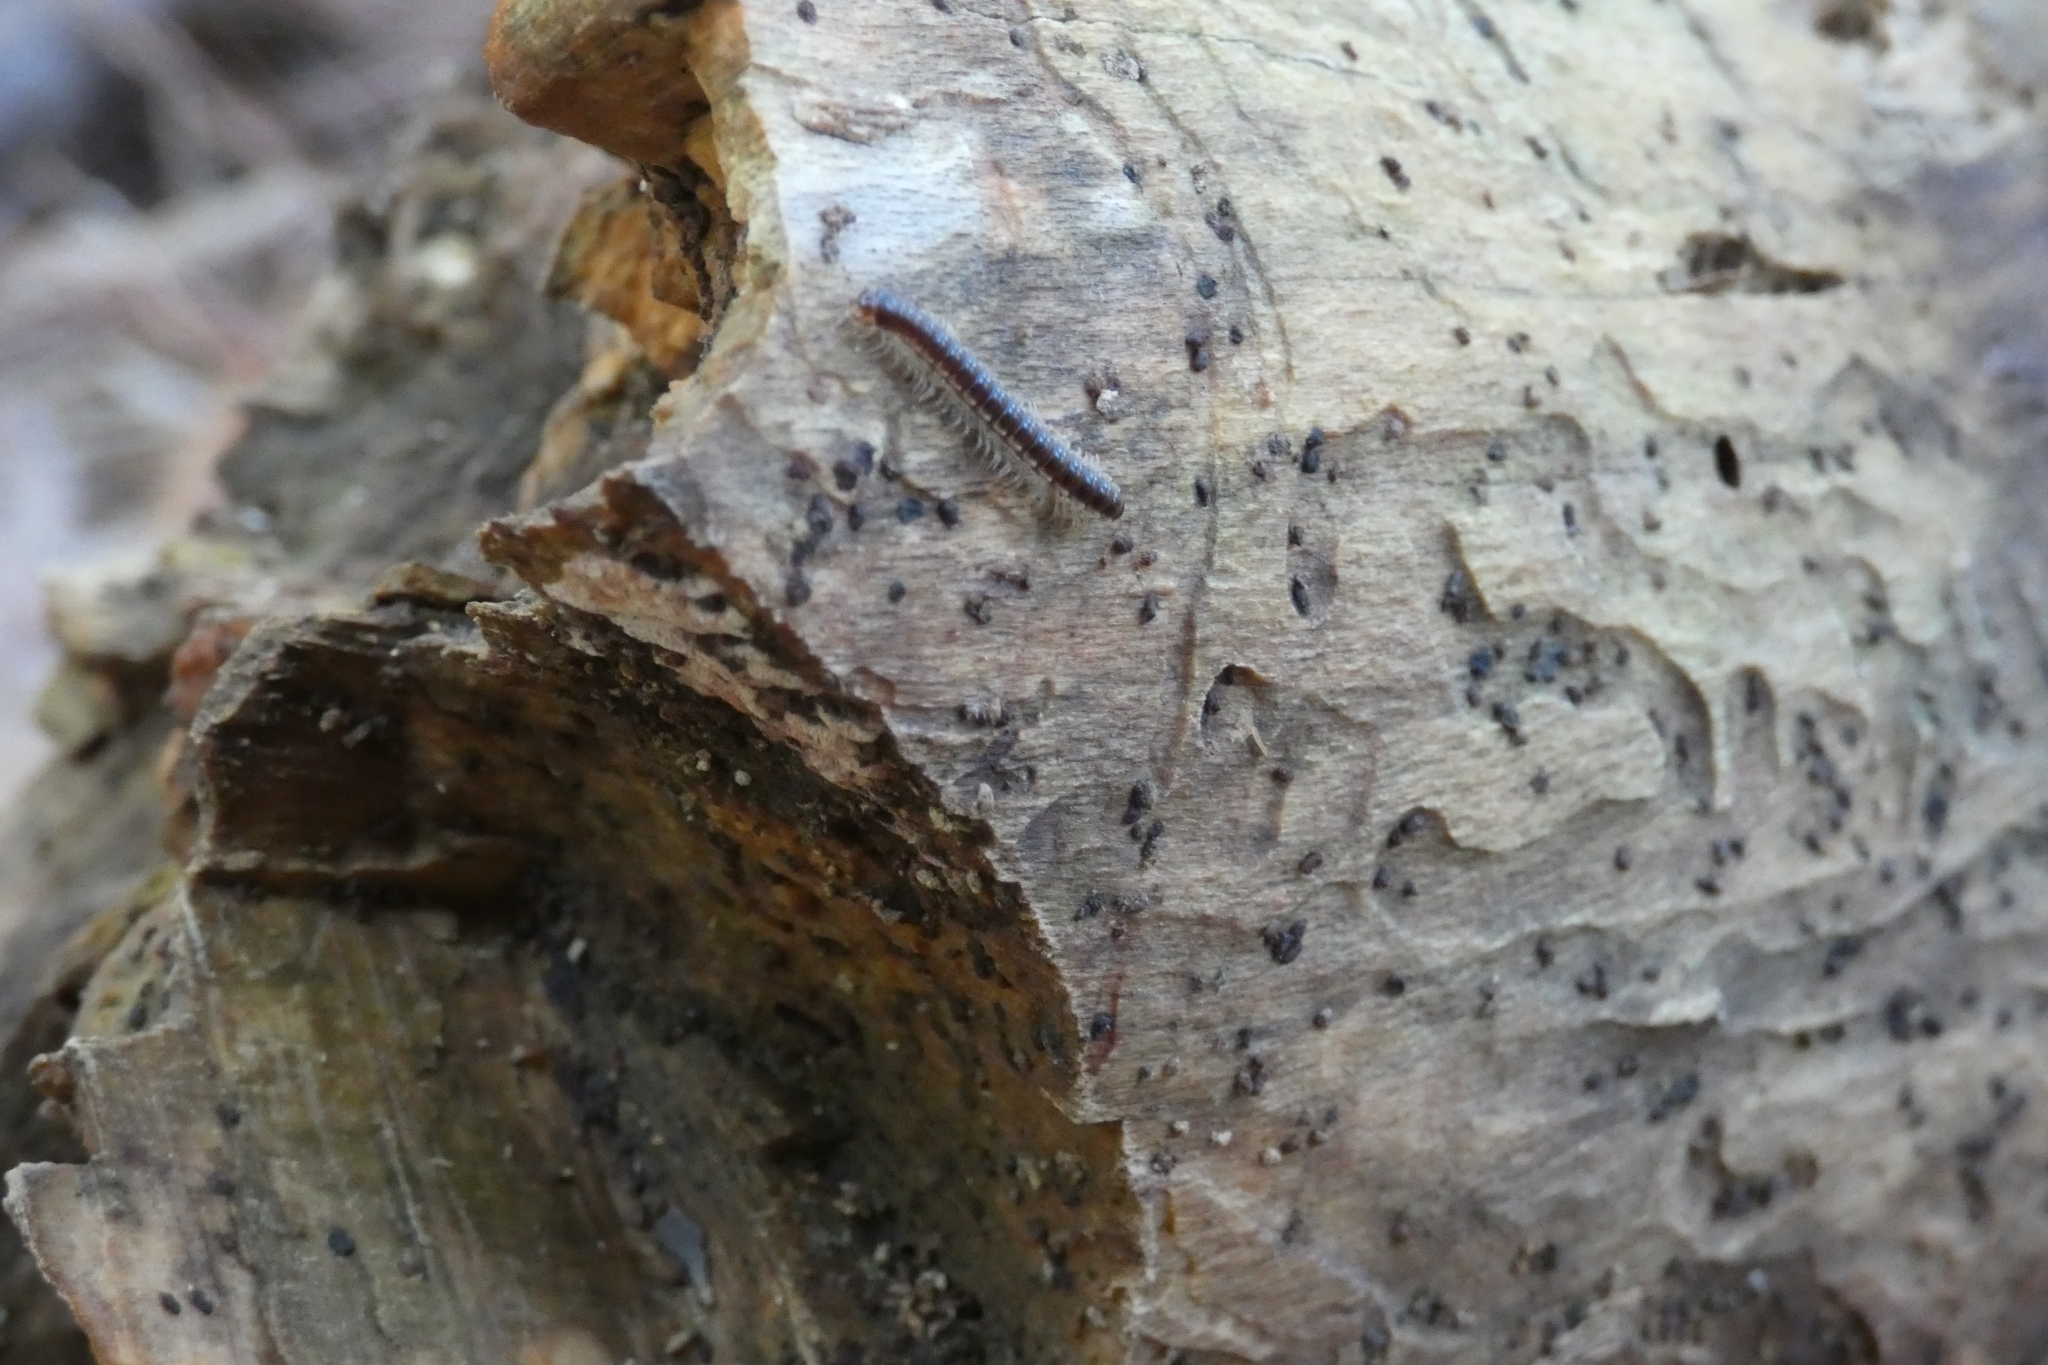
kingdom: Animalia
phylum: Arthropoda
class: Diplopoda
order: Polydesmida
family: Paradoxosomatidae
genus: Oxidus
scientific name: Oxidus gracilis
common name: Greenhouse millipede
